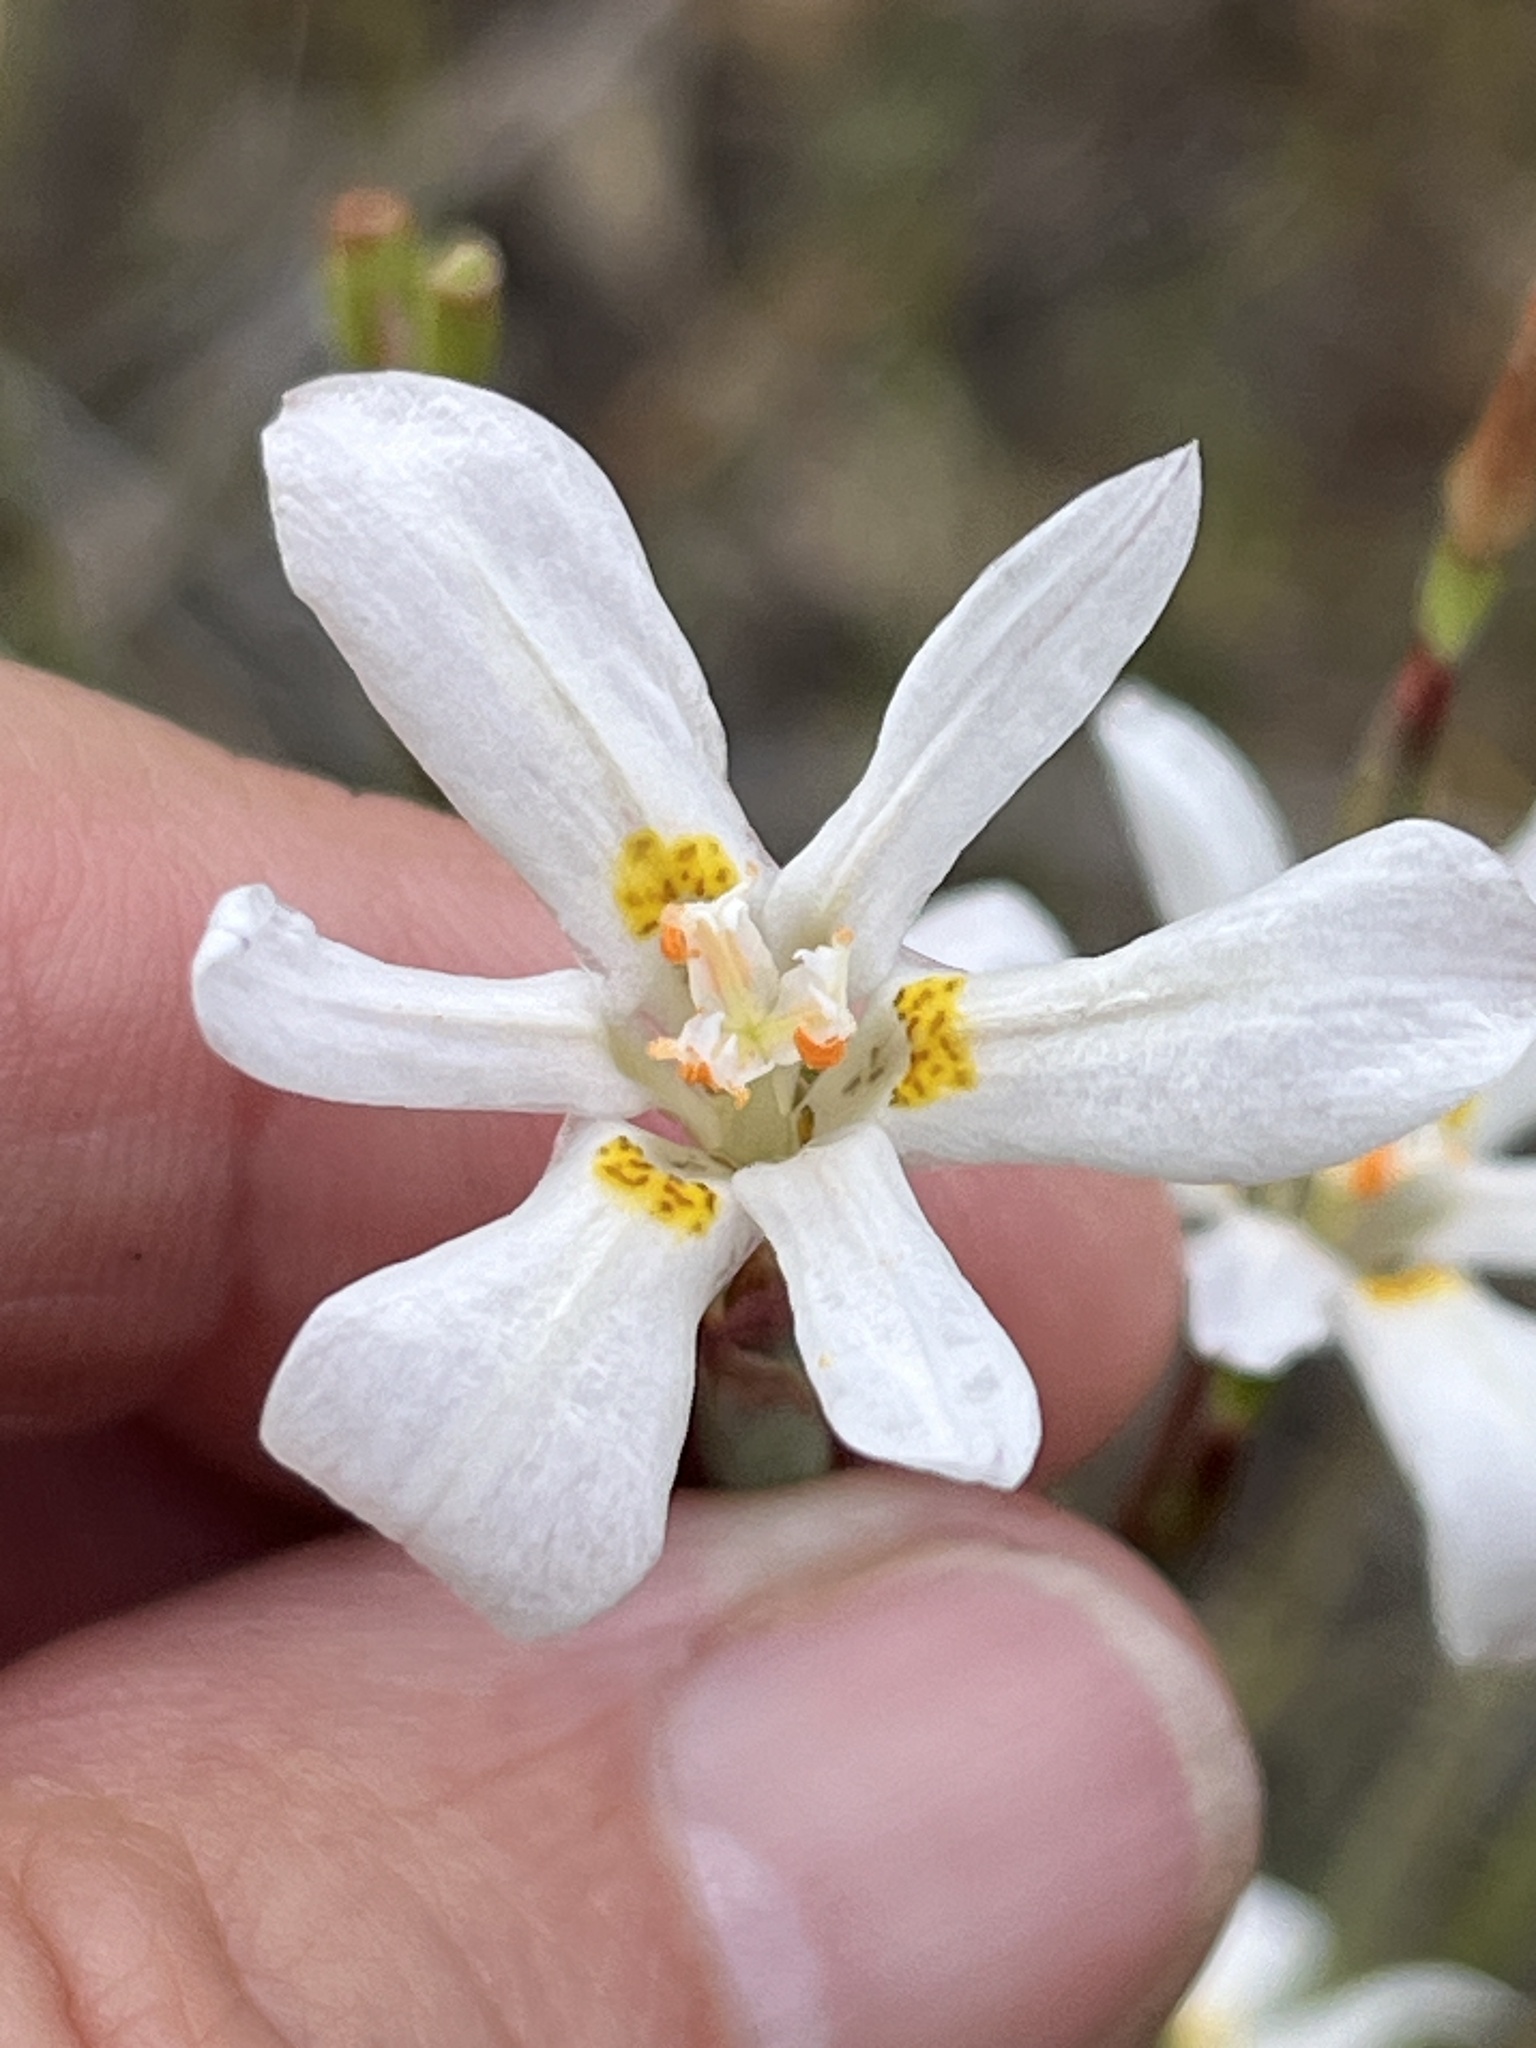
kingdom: Plantae
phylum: Tracheophyta
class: Liliopsida
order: Asparagales
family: Iridaceae
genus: Moraea
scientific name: Moraea elsiae
